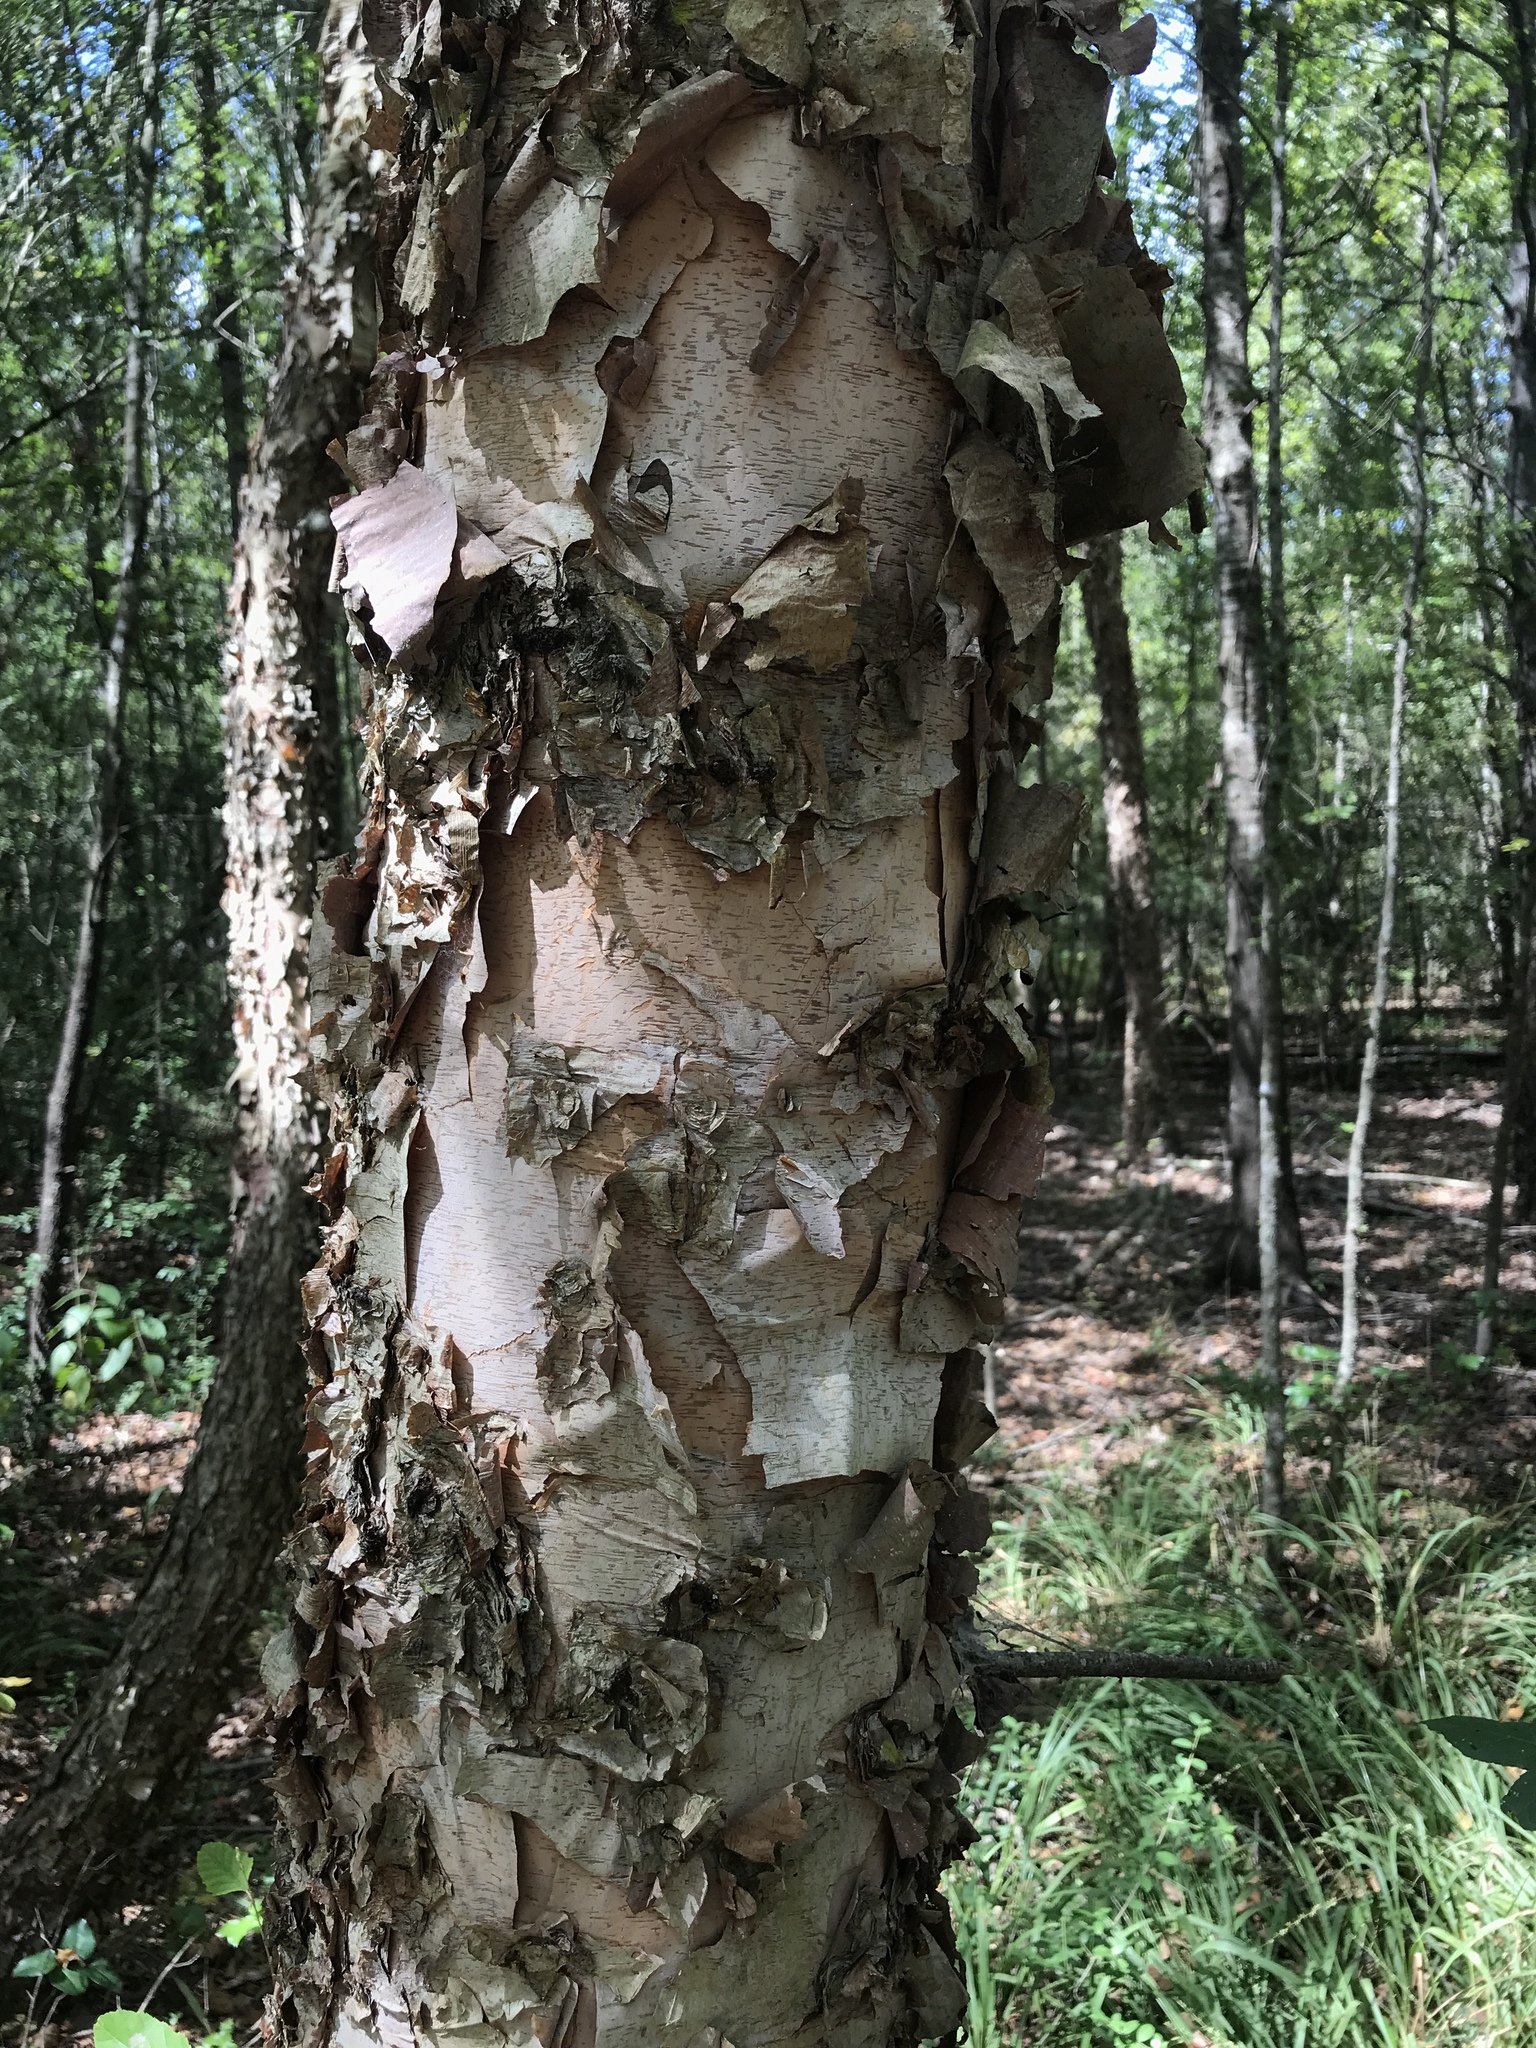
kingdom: Plantae
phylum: Tracheophyta
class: Magnoliopsida
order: Fagales
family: Betulaceae
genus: Betula
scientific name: Betula nigra
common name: Black birch
